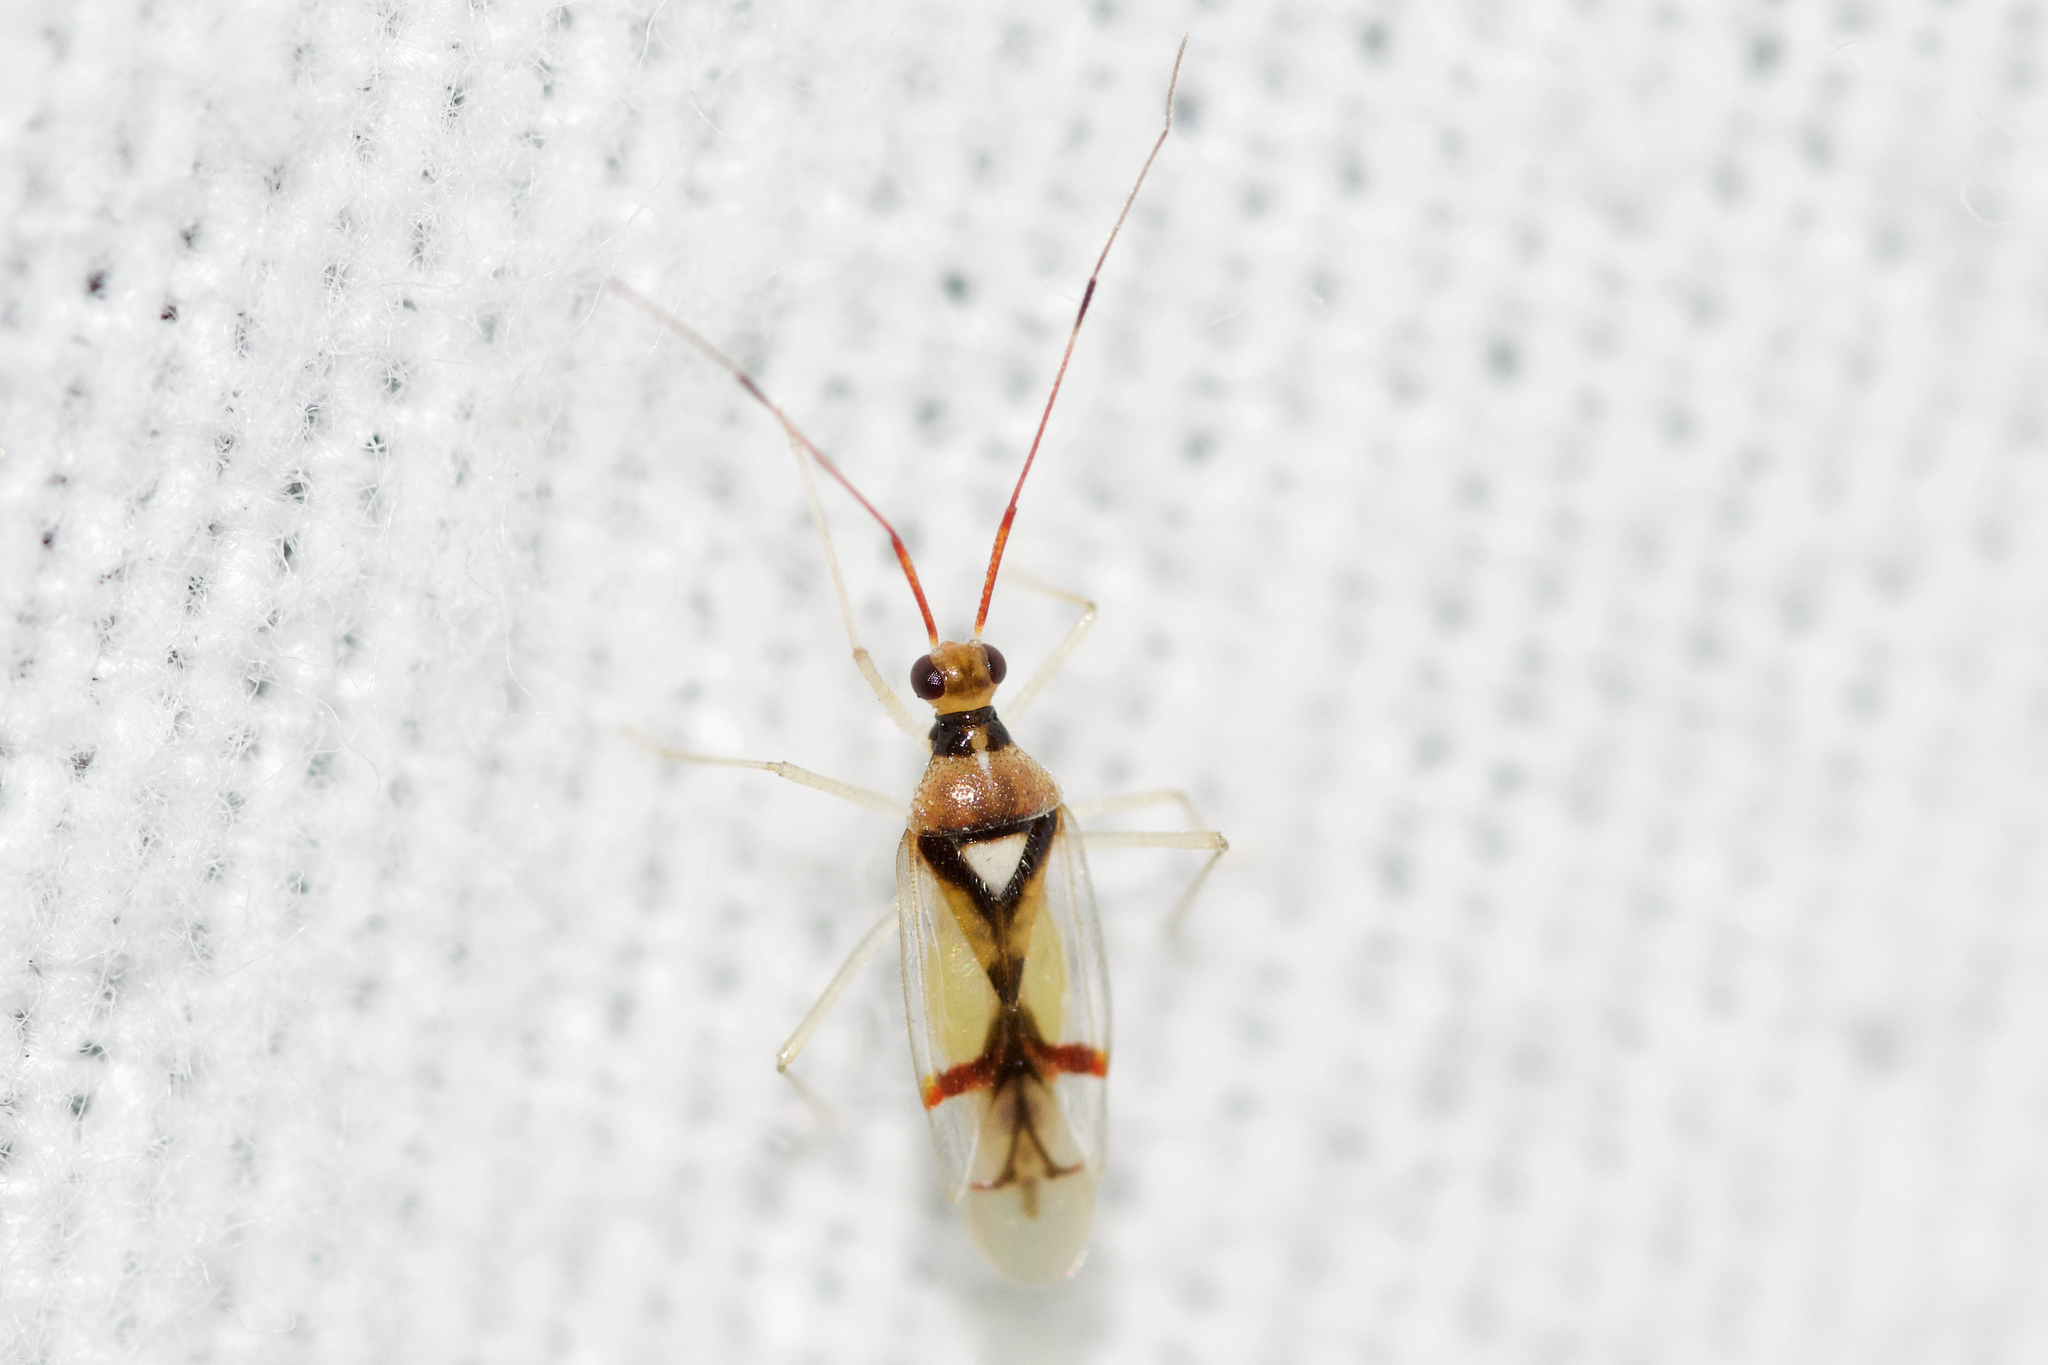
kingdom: Animalia
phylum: Arthropoda
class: Insecta
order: Hemiptera
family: Miridae
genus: Hyaliodes
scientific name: Hyaliodes harti
